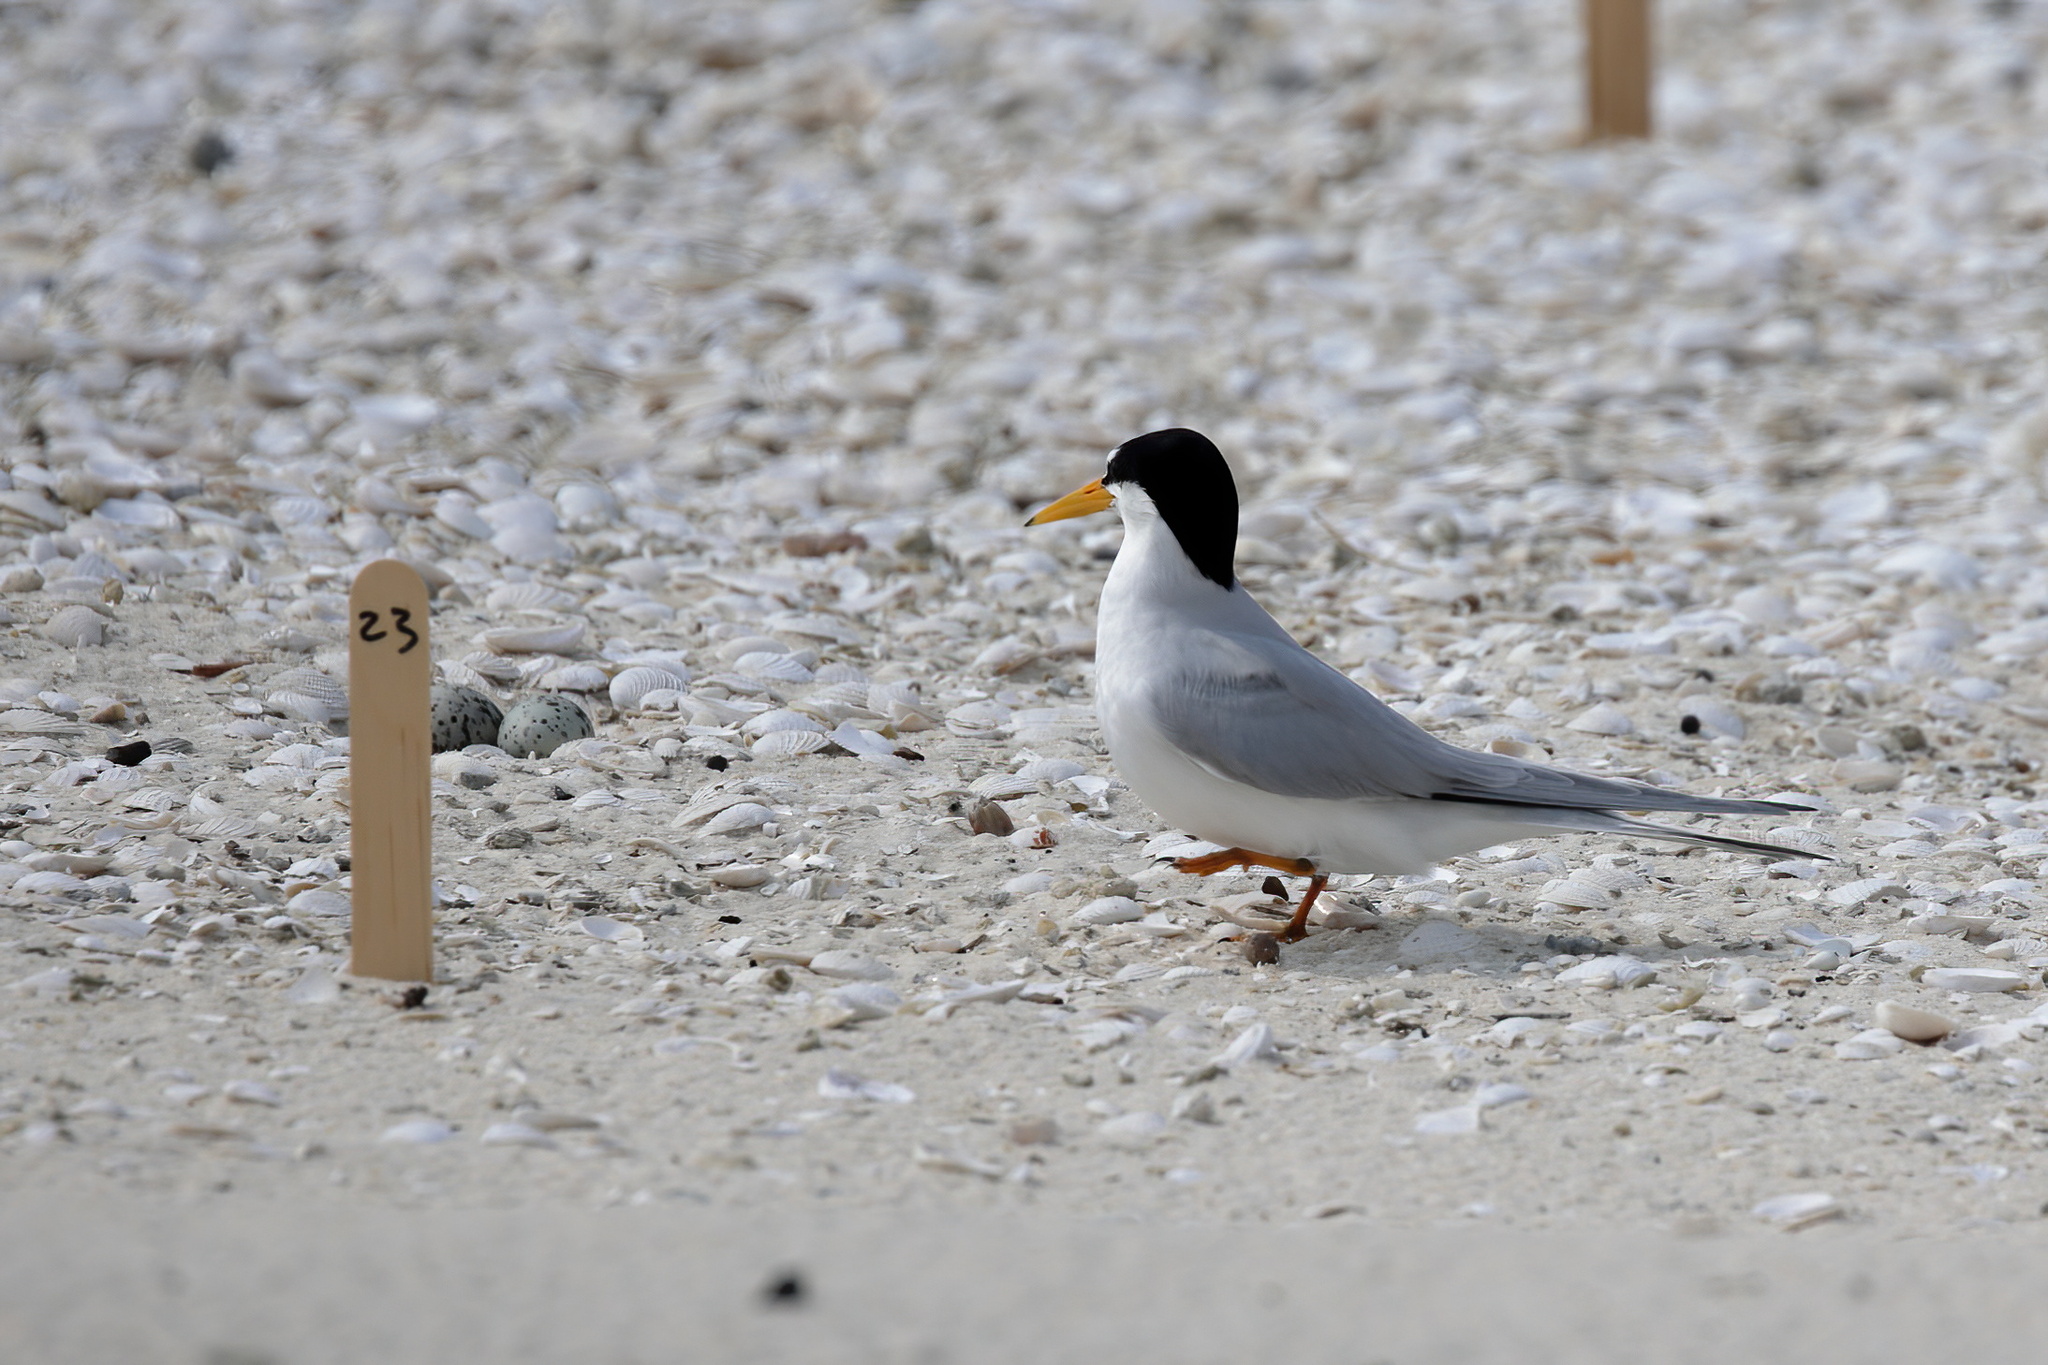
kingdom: Animalia
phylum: Chordata
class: Aves
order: Charadriiformes
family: Laridae
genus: Sternula
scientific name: Sternula antillarum
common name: Least tern
